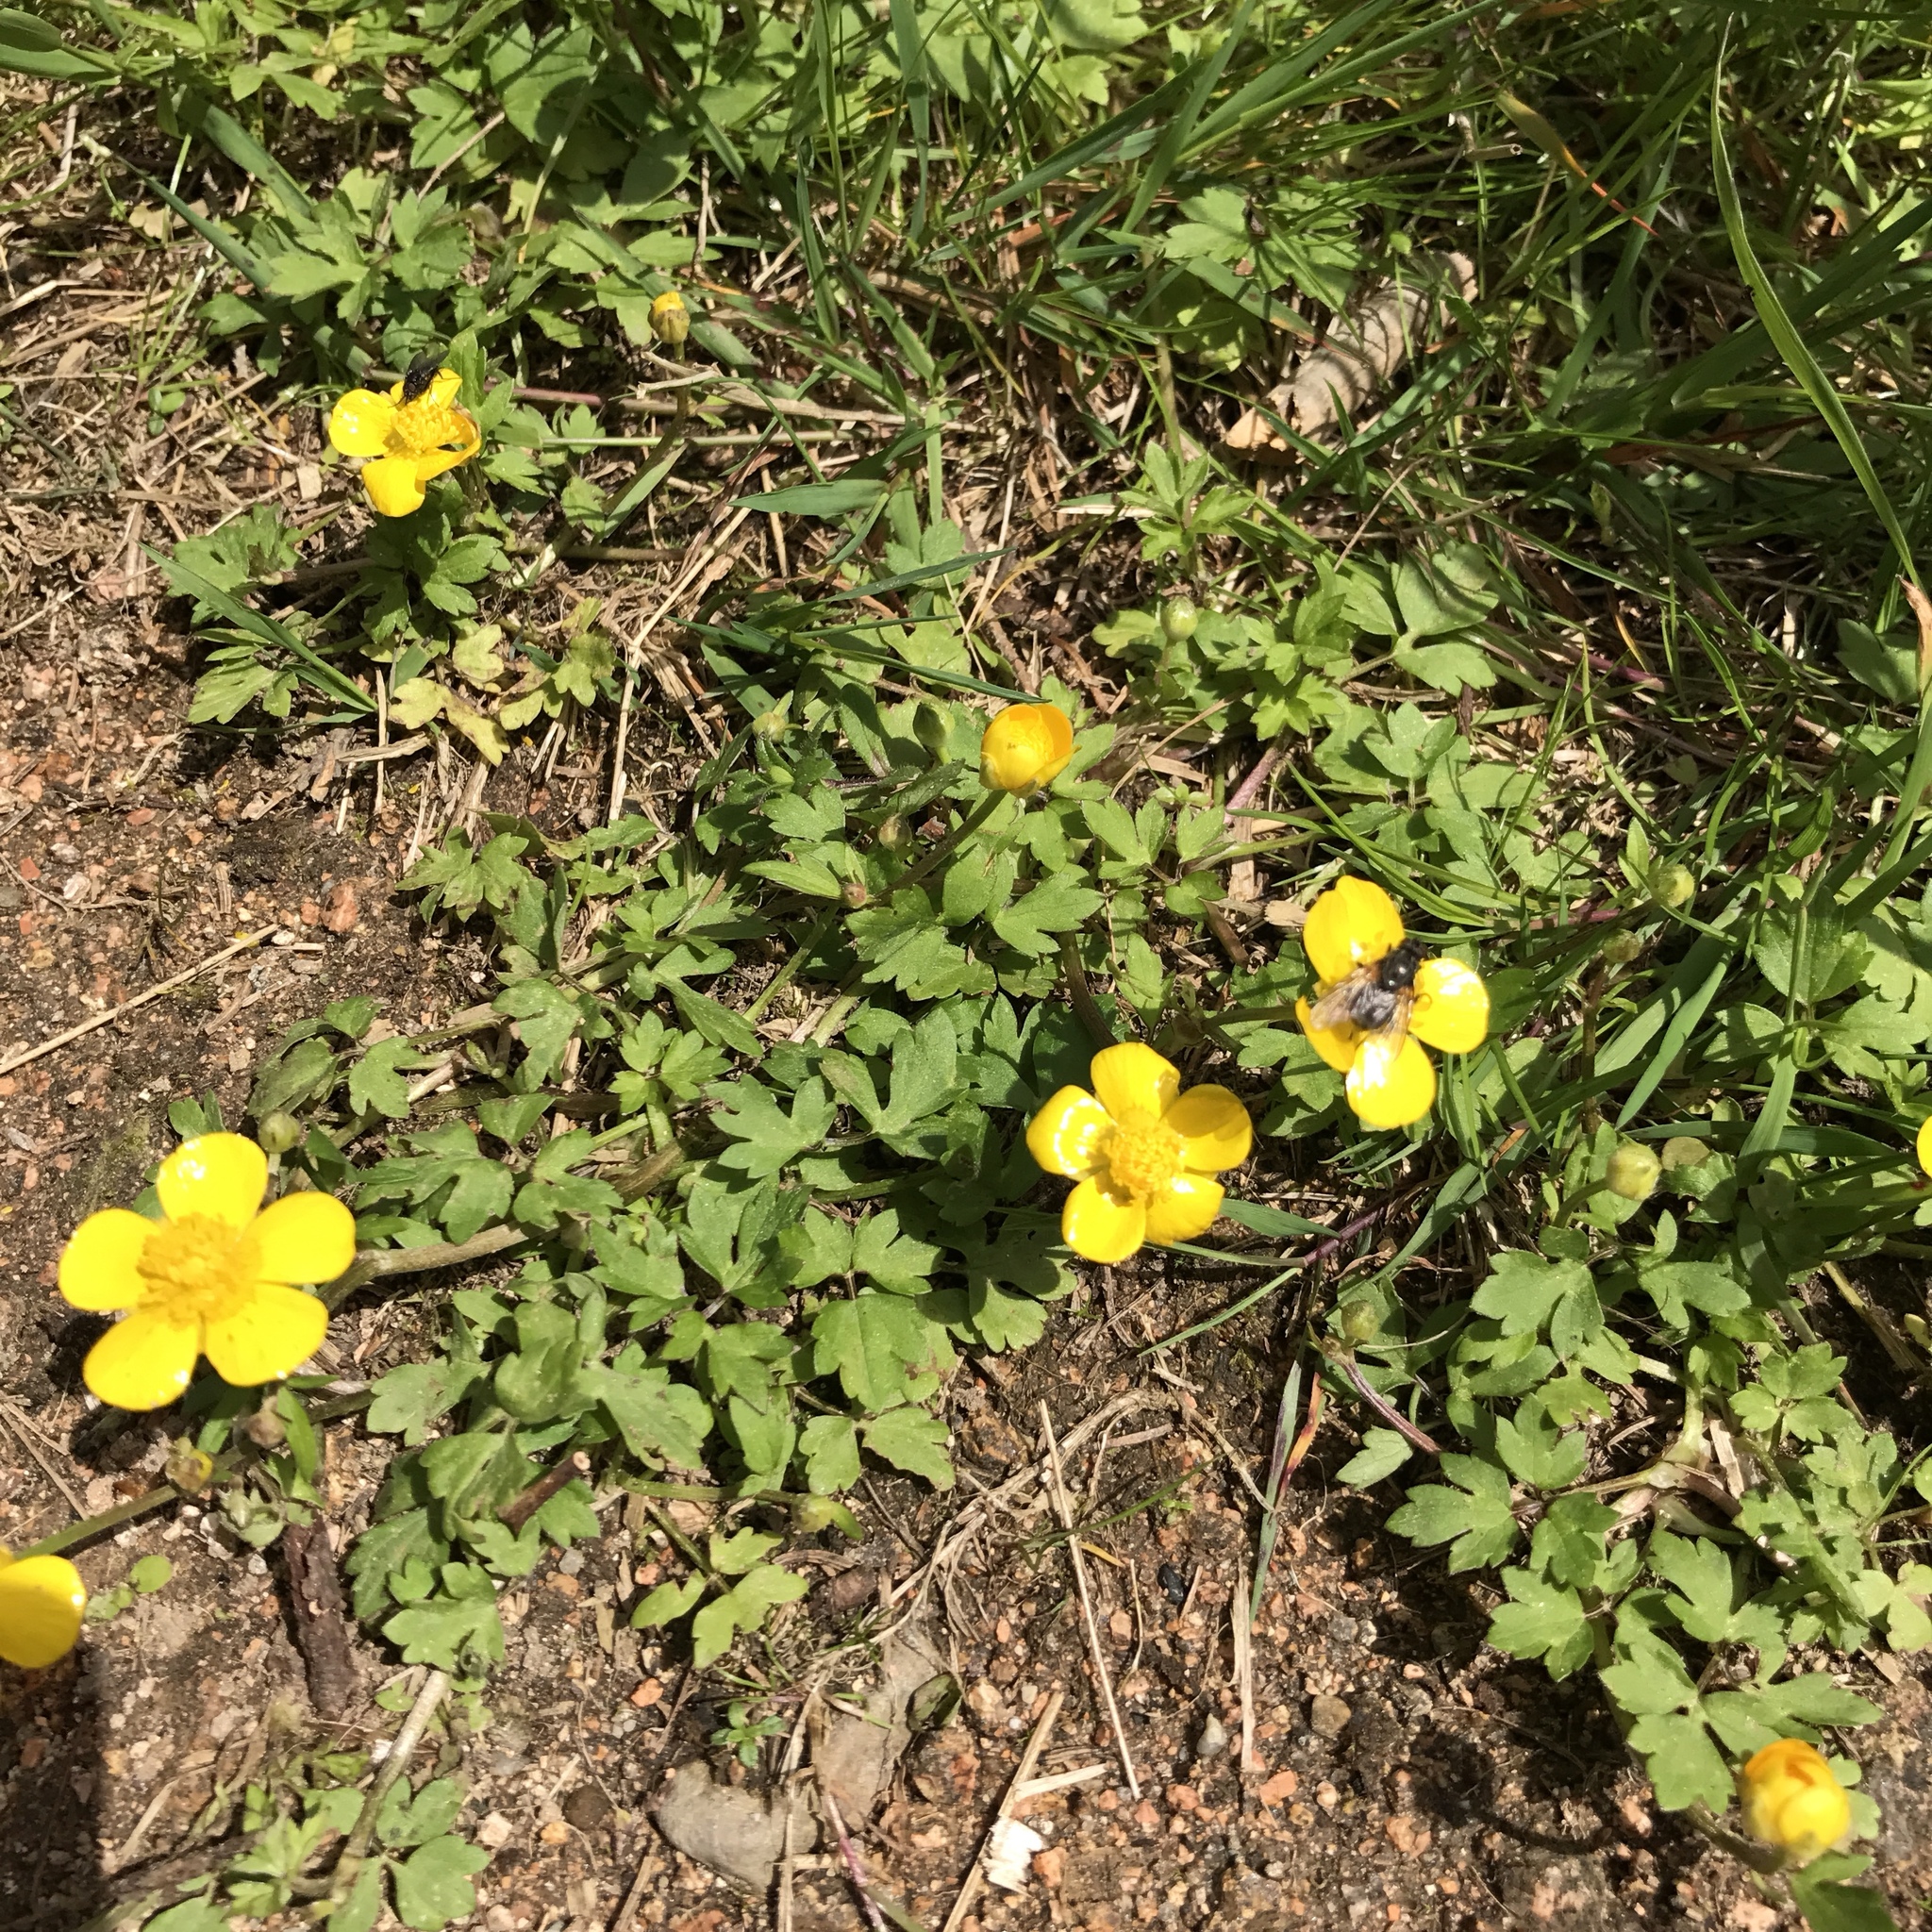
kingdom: Plantae
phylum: Tracheophyta
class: Magnoliopsida
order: Ranunculales
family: Ranunculaceae
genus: Ranunculus
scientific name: Ranunculus repens
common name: Creeping buttercup
